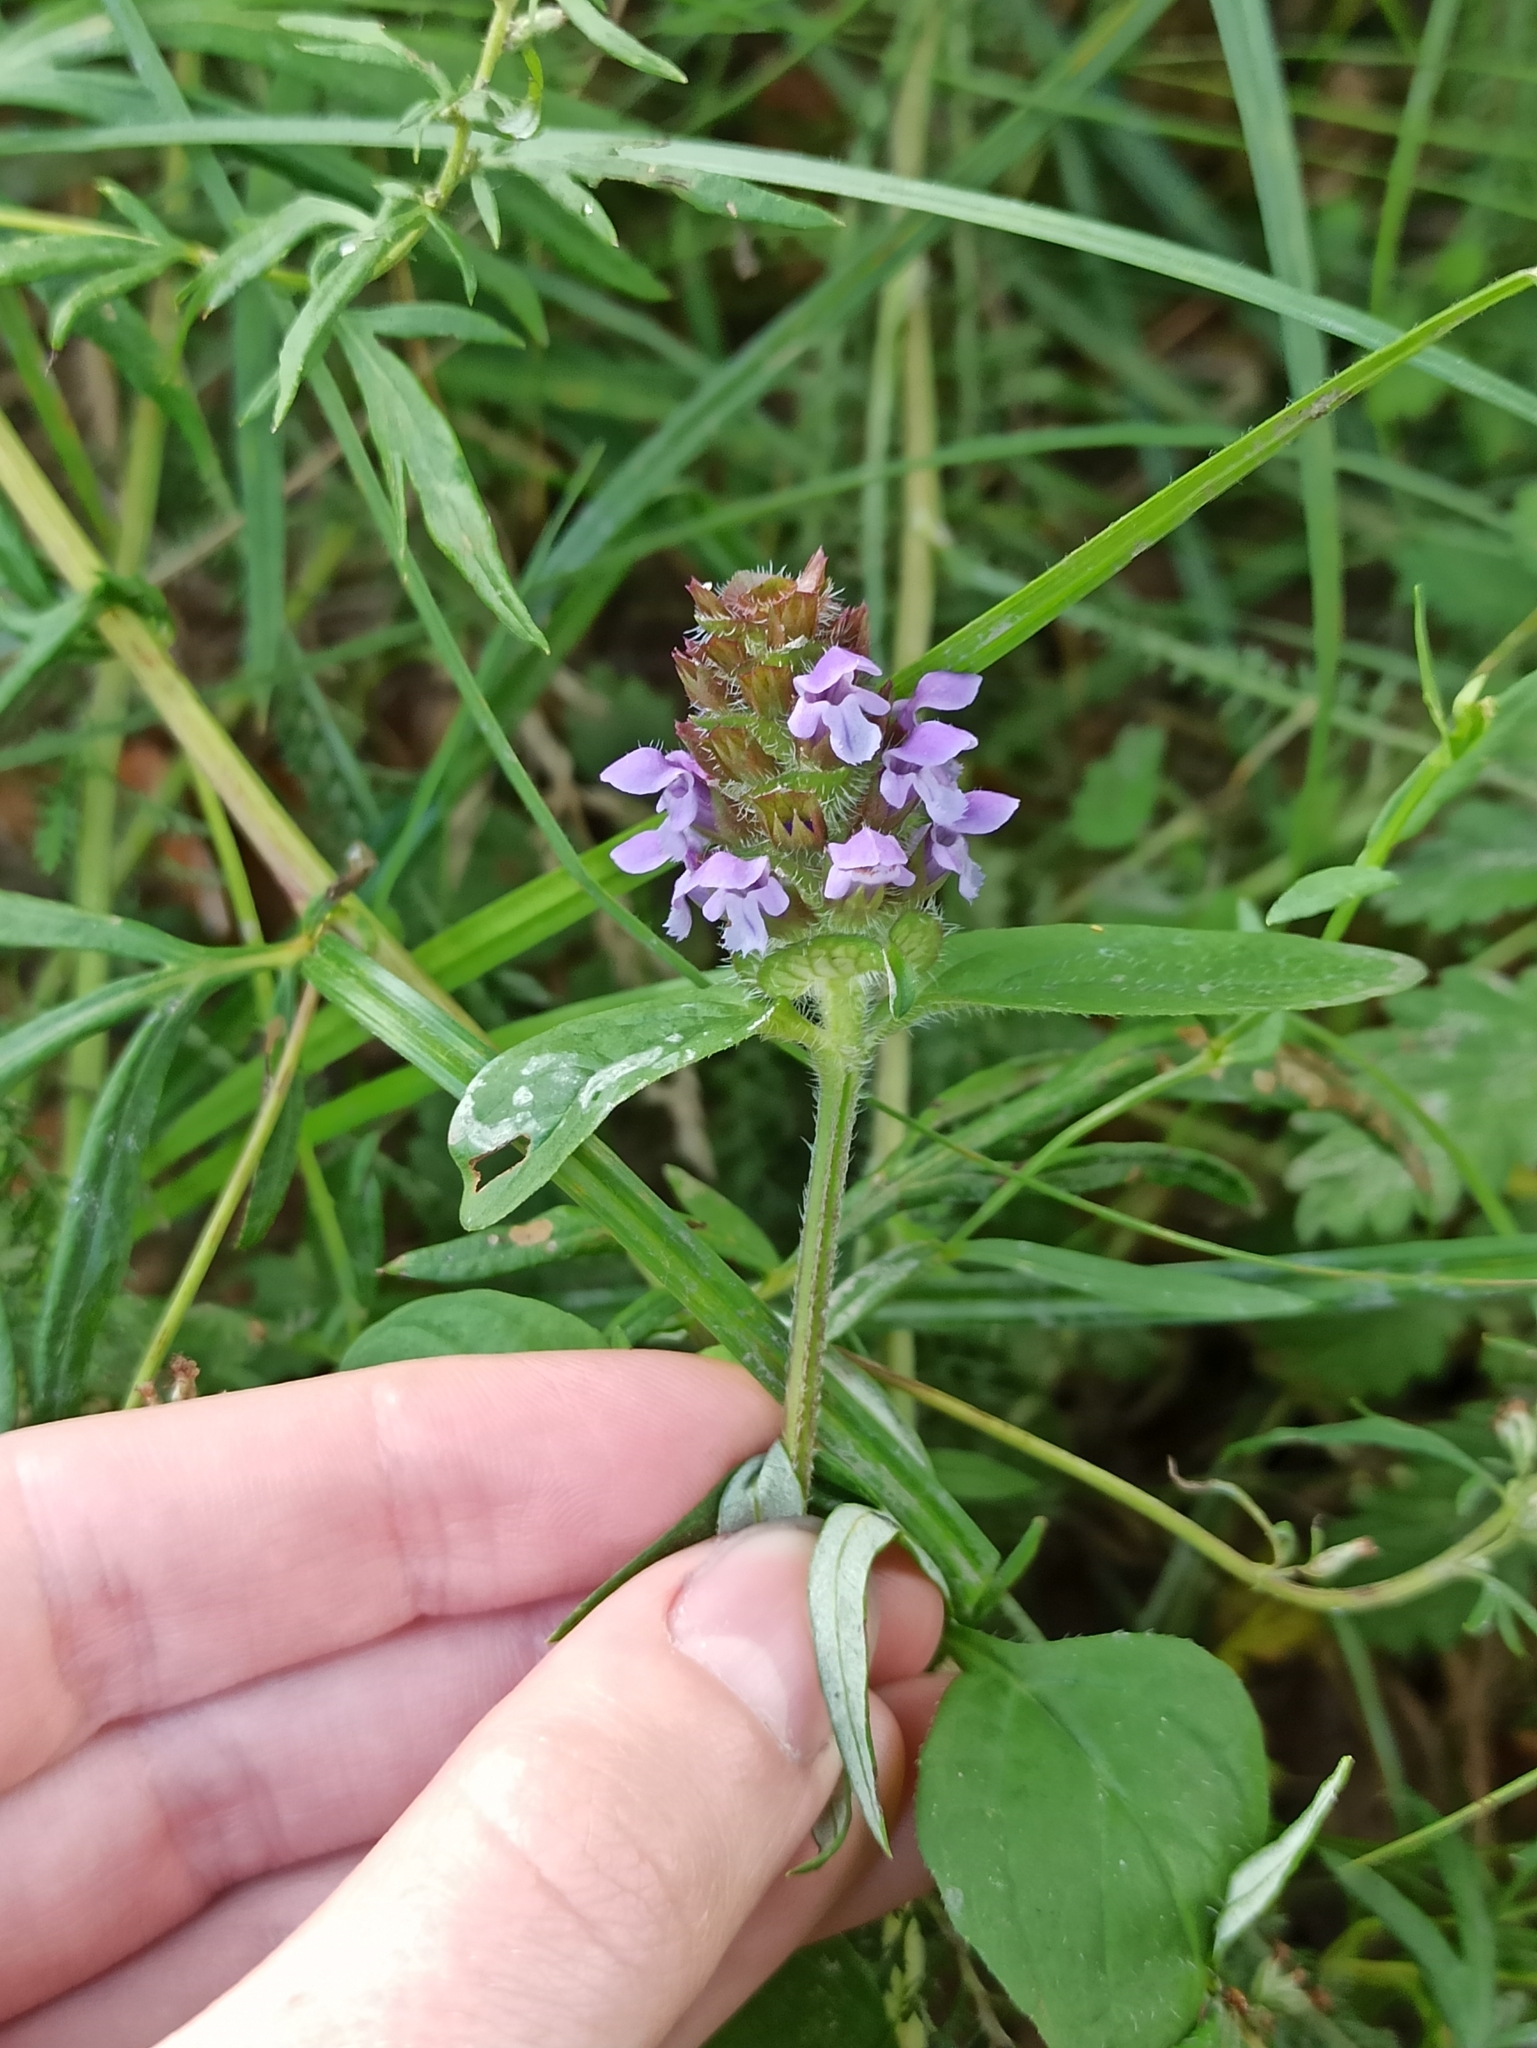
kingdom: Plantae
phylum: Tracheophyta
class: Magnoliopsida
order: Lamiales
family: Lamiaceae
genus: Prunella
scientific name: Prunella vulgaris
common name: Heal-all
